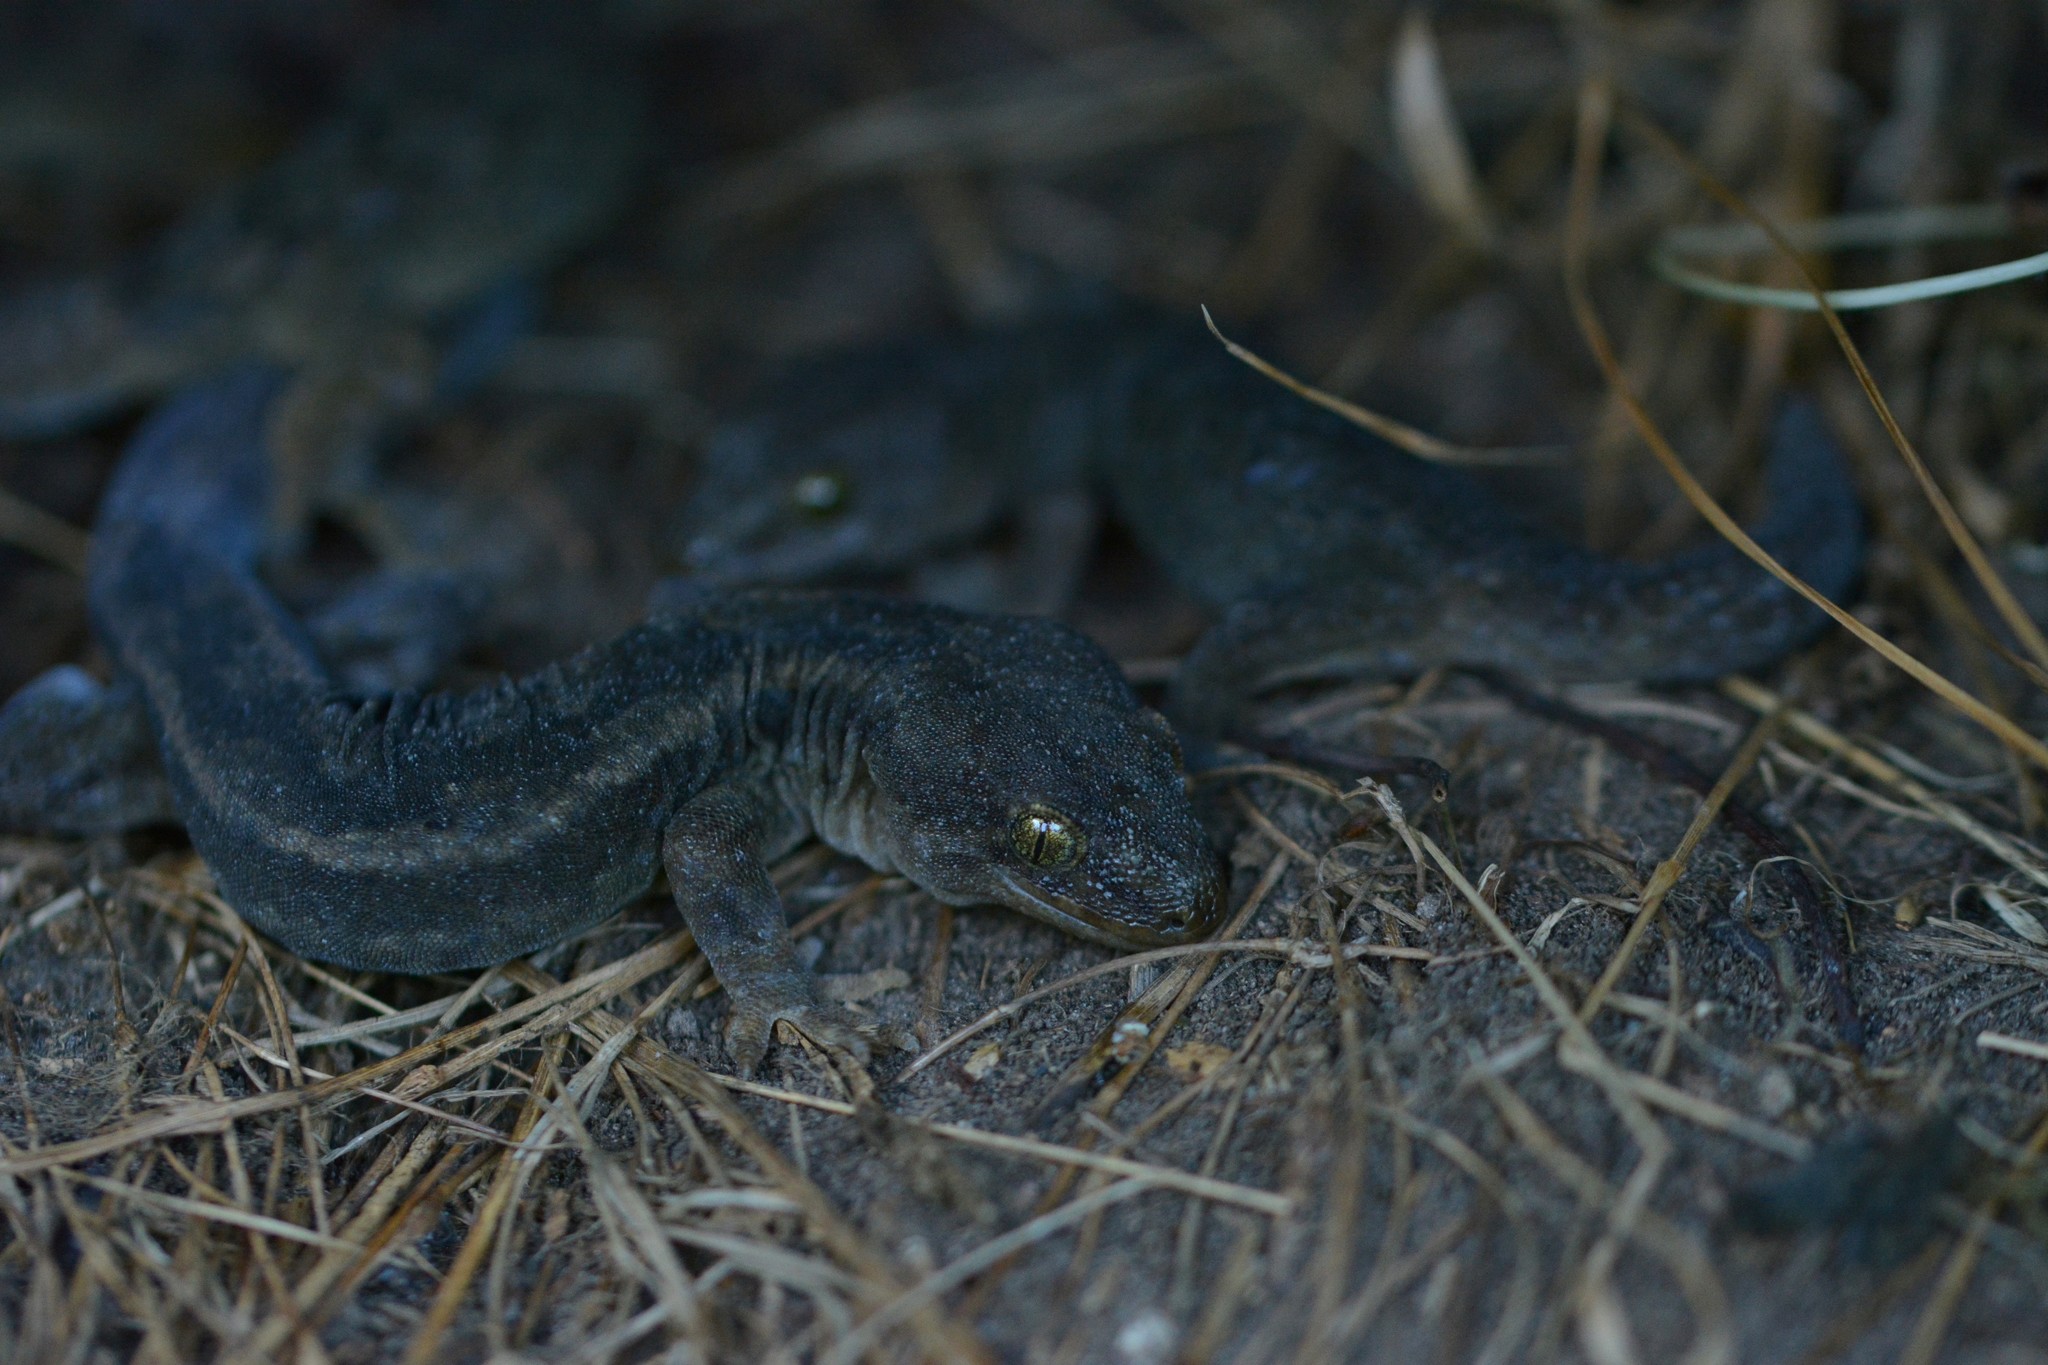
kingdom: Animalia
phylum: Chordata
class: Squamata
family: Diplodactylidae
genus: Woodworthia
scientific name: Woodworthia maculata
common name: Raukawa gecko
